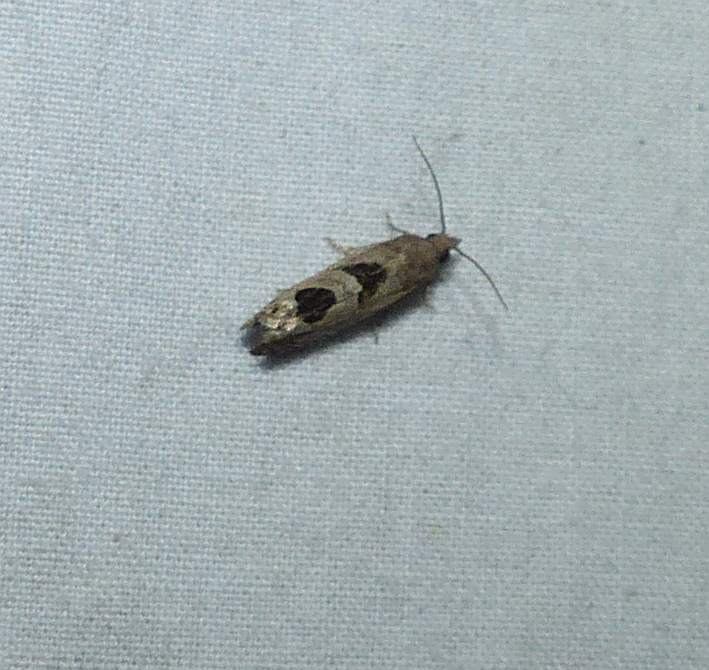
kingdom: Animalia
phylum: Arthropoda
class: Insecta
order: Lepidoptera
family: Tortricidae
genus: Eucosma
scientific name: Eucosma tomonana
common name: Aster-head eucosma moth
